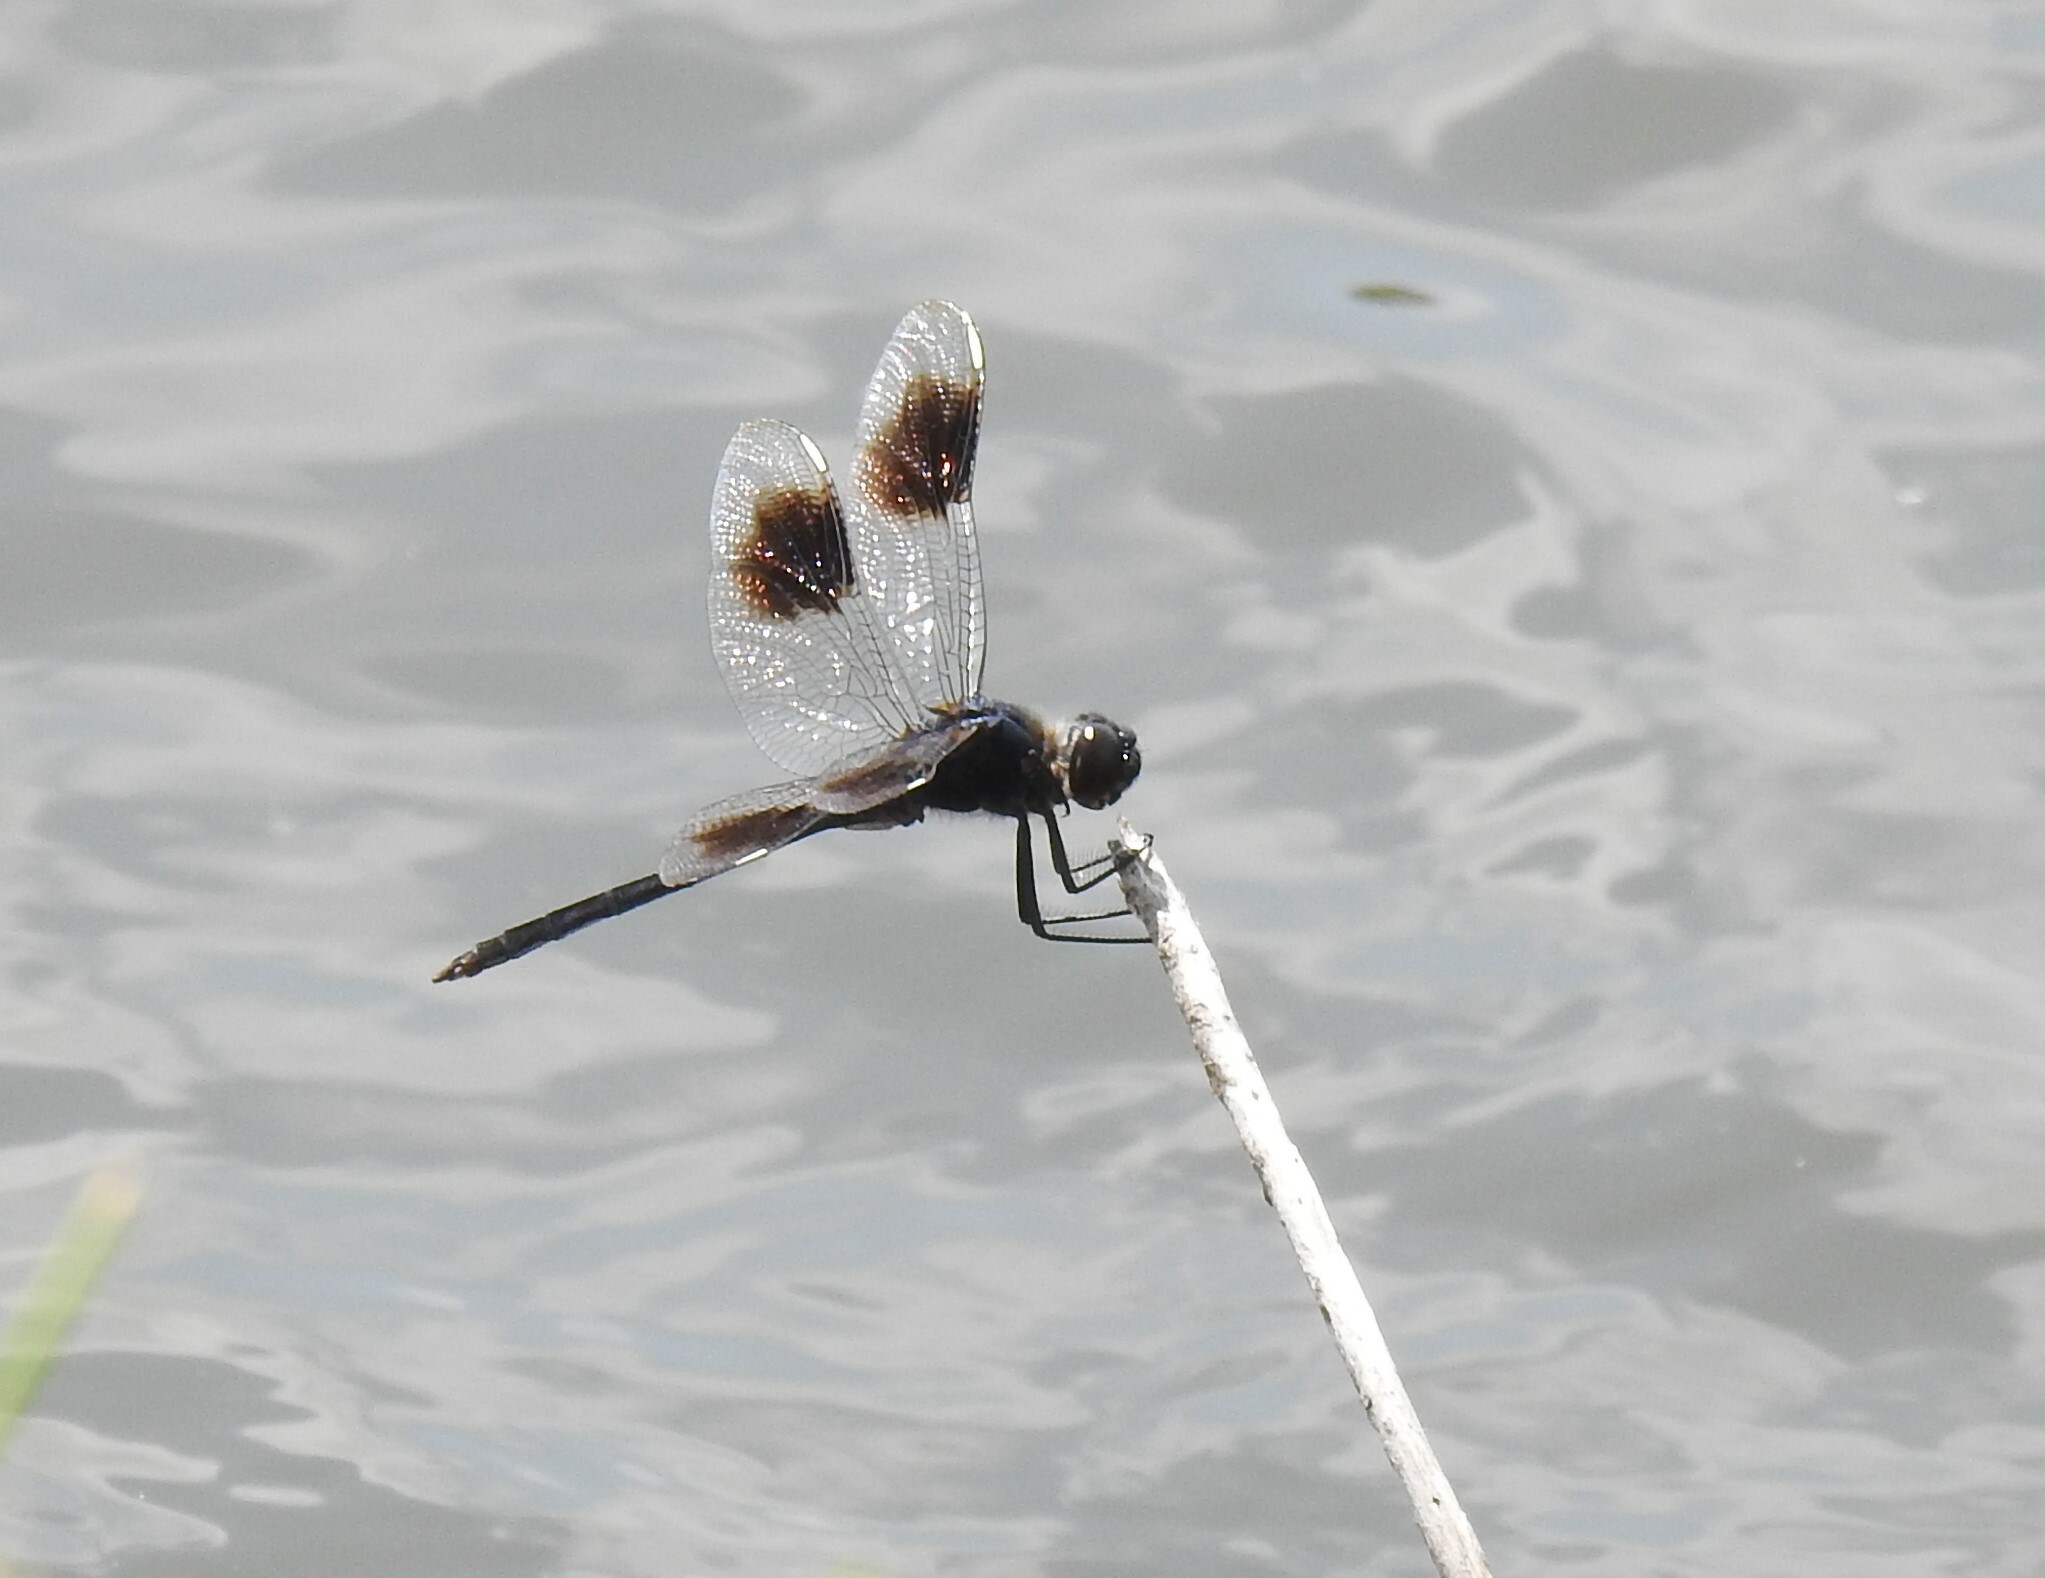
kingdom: Animalia
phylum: Arthropoda
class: Insecta
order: Odonata
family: Libellulidae
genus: Brachymesia
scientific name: Brachymesia gravida
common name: Four-spotted pennant
